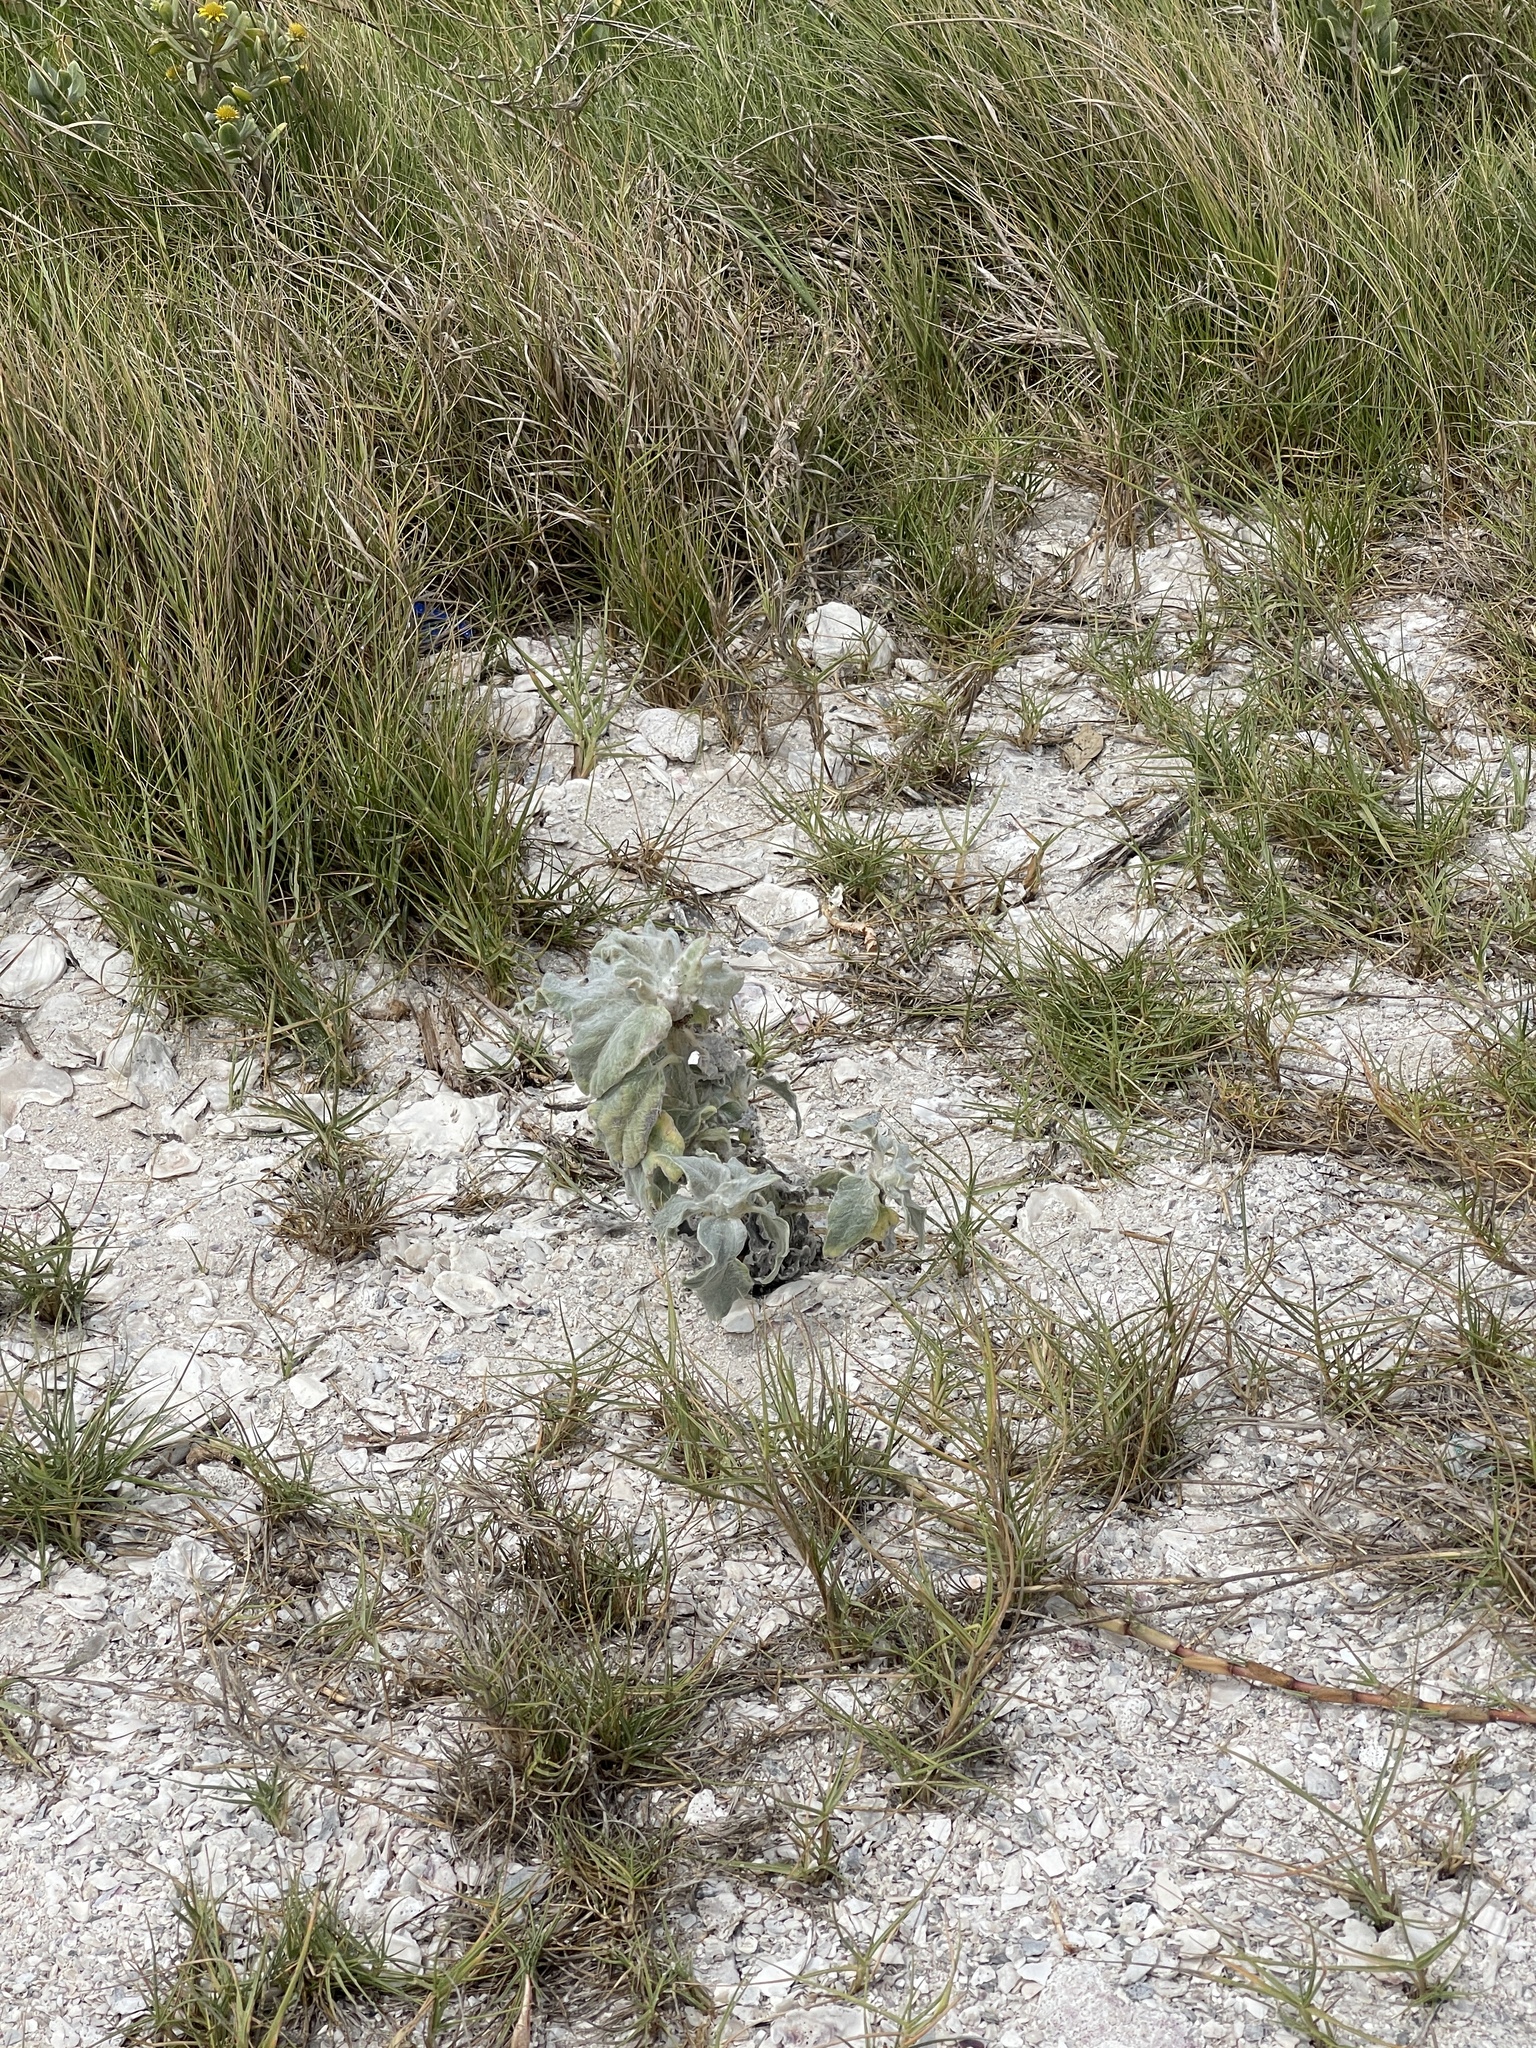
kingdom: Plantae
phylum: Tracheophyta
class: Magnoliopsida
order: Asterales
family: Asteraceae
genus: Helianthus
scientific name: Helianthus argophyllus
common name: Silverleaf sunflower
